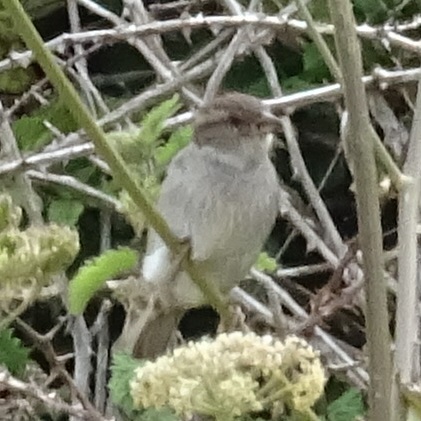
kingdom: Animalia
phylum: Chordata
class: Aves
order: Passeriformes
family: Passeridae
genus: Passer
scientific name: Passer domesticus
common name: House sparrow
